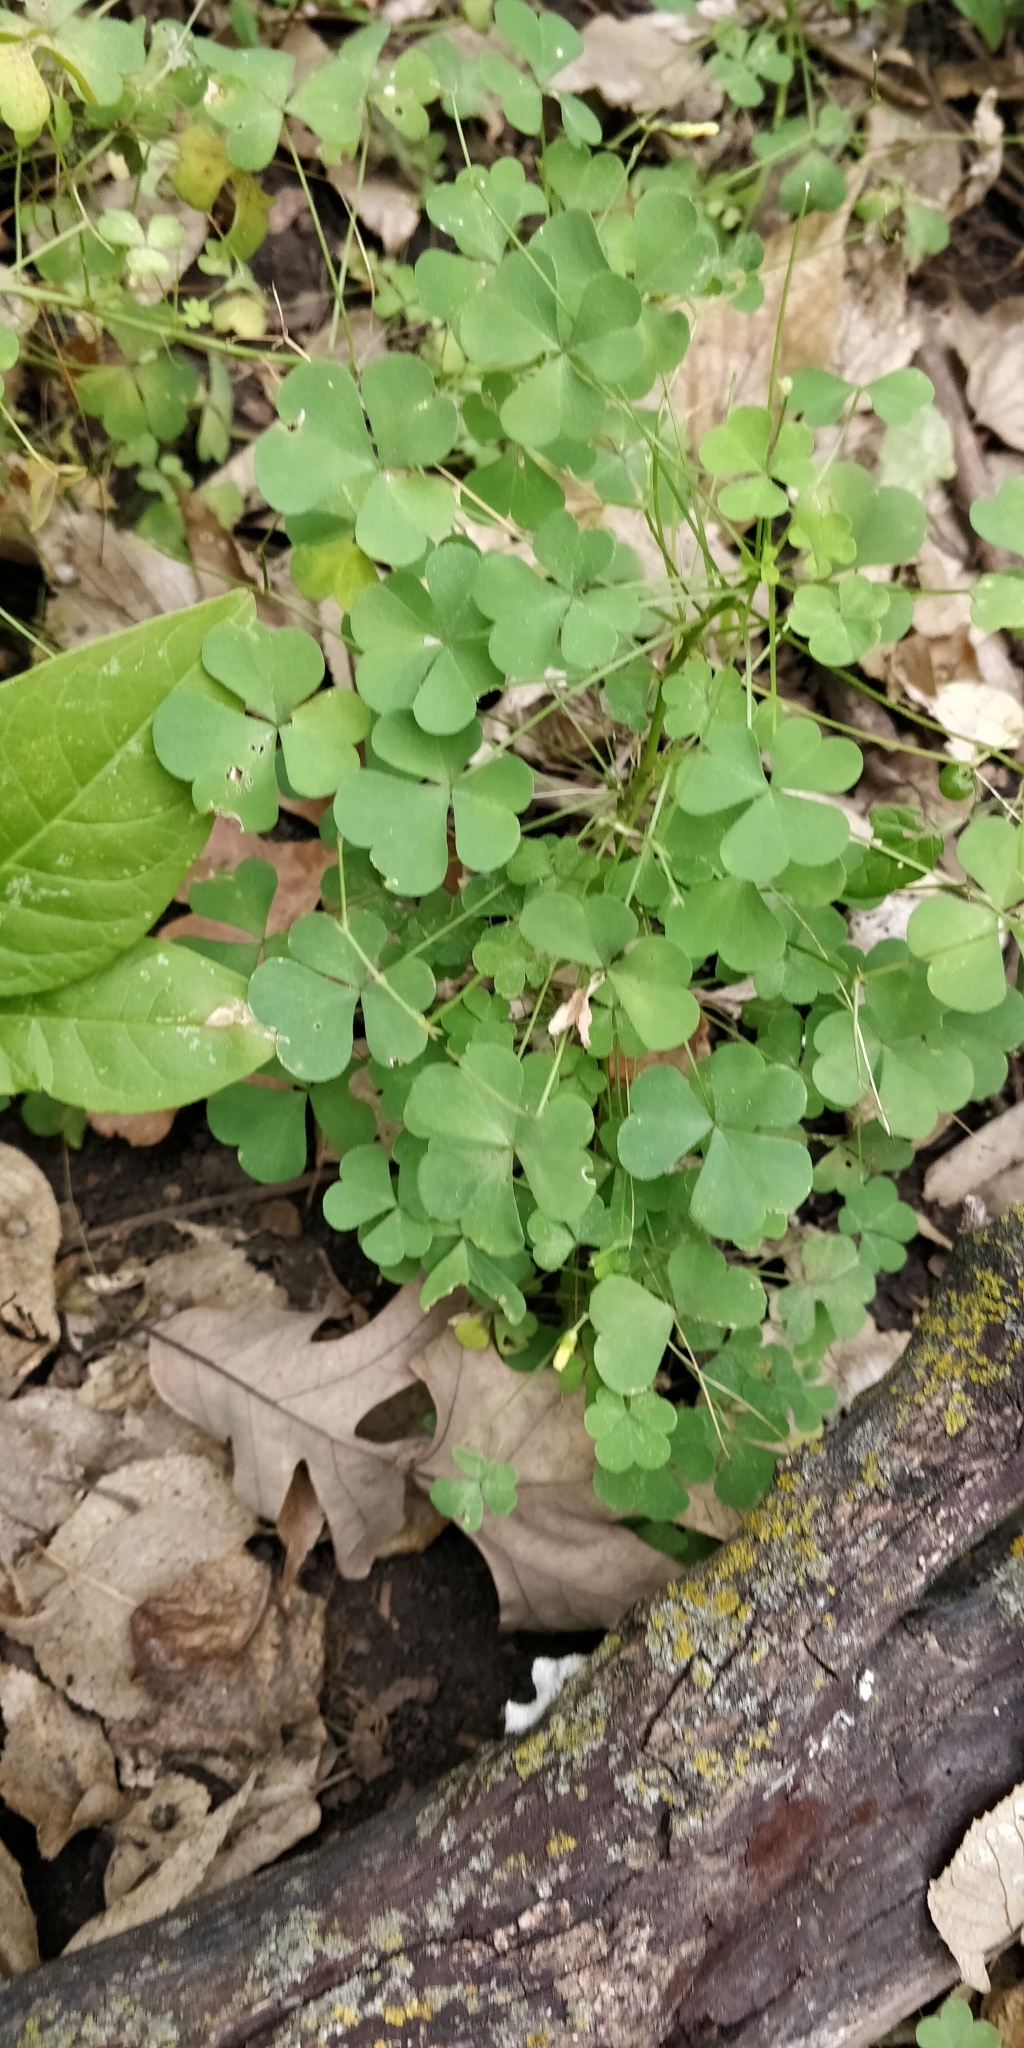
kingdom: Plantae
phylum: Tracheophyta
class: Magnoliopsida
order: Oxalidales
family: Oxalidaceae
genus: Oxalis
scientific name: Oxalis stricta
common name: Upright yellow-sorrel
